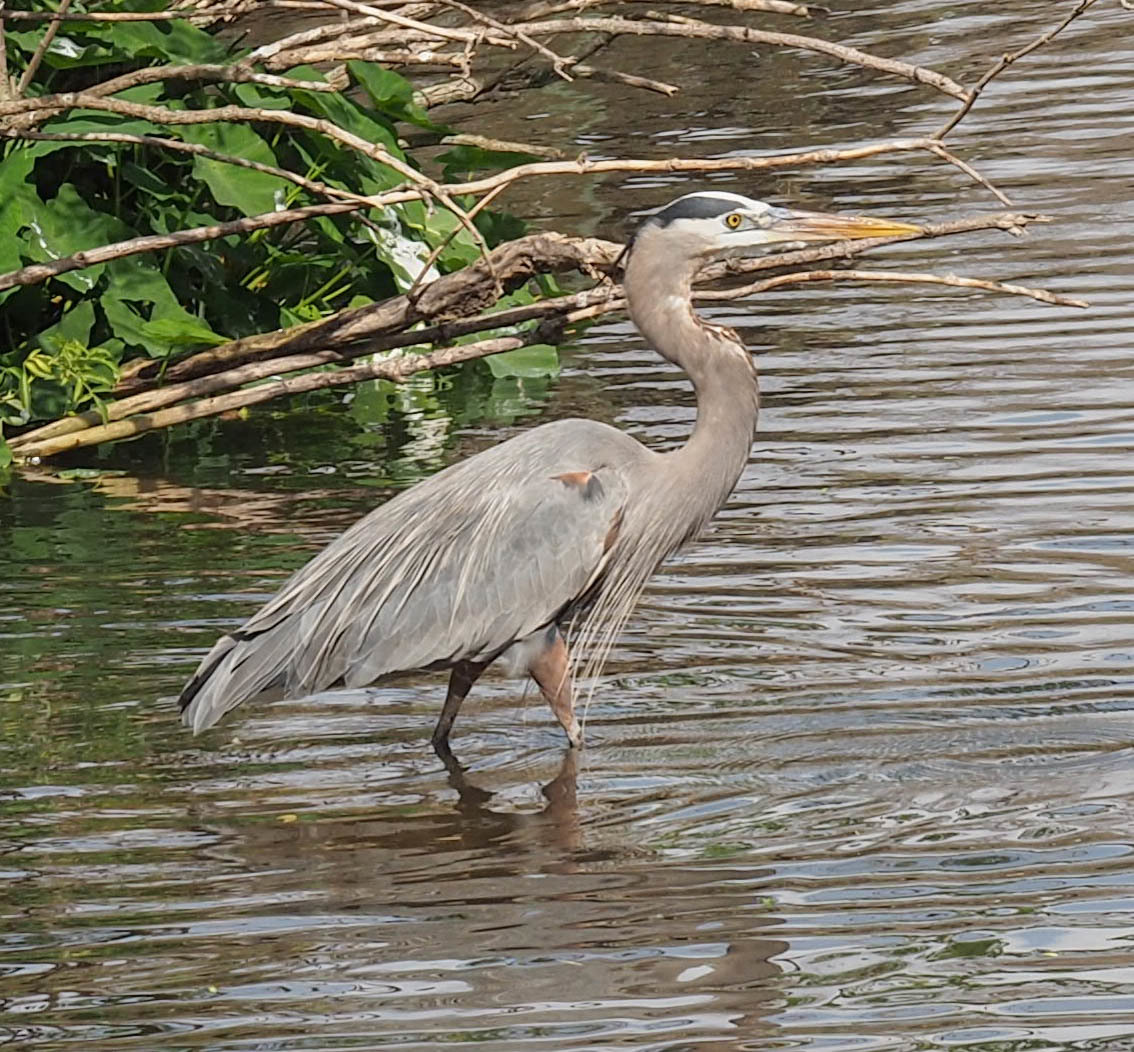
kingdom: Animalia
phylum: Chordata
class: Aves
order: Pelecaniformes
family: Ardeidae
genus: Ardea
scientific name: Ardea herodias
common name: Great blue heron
